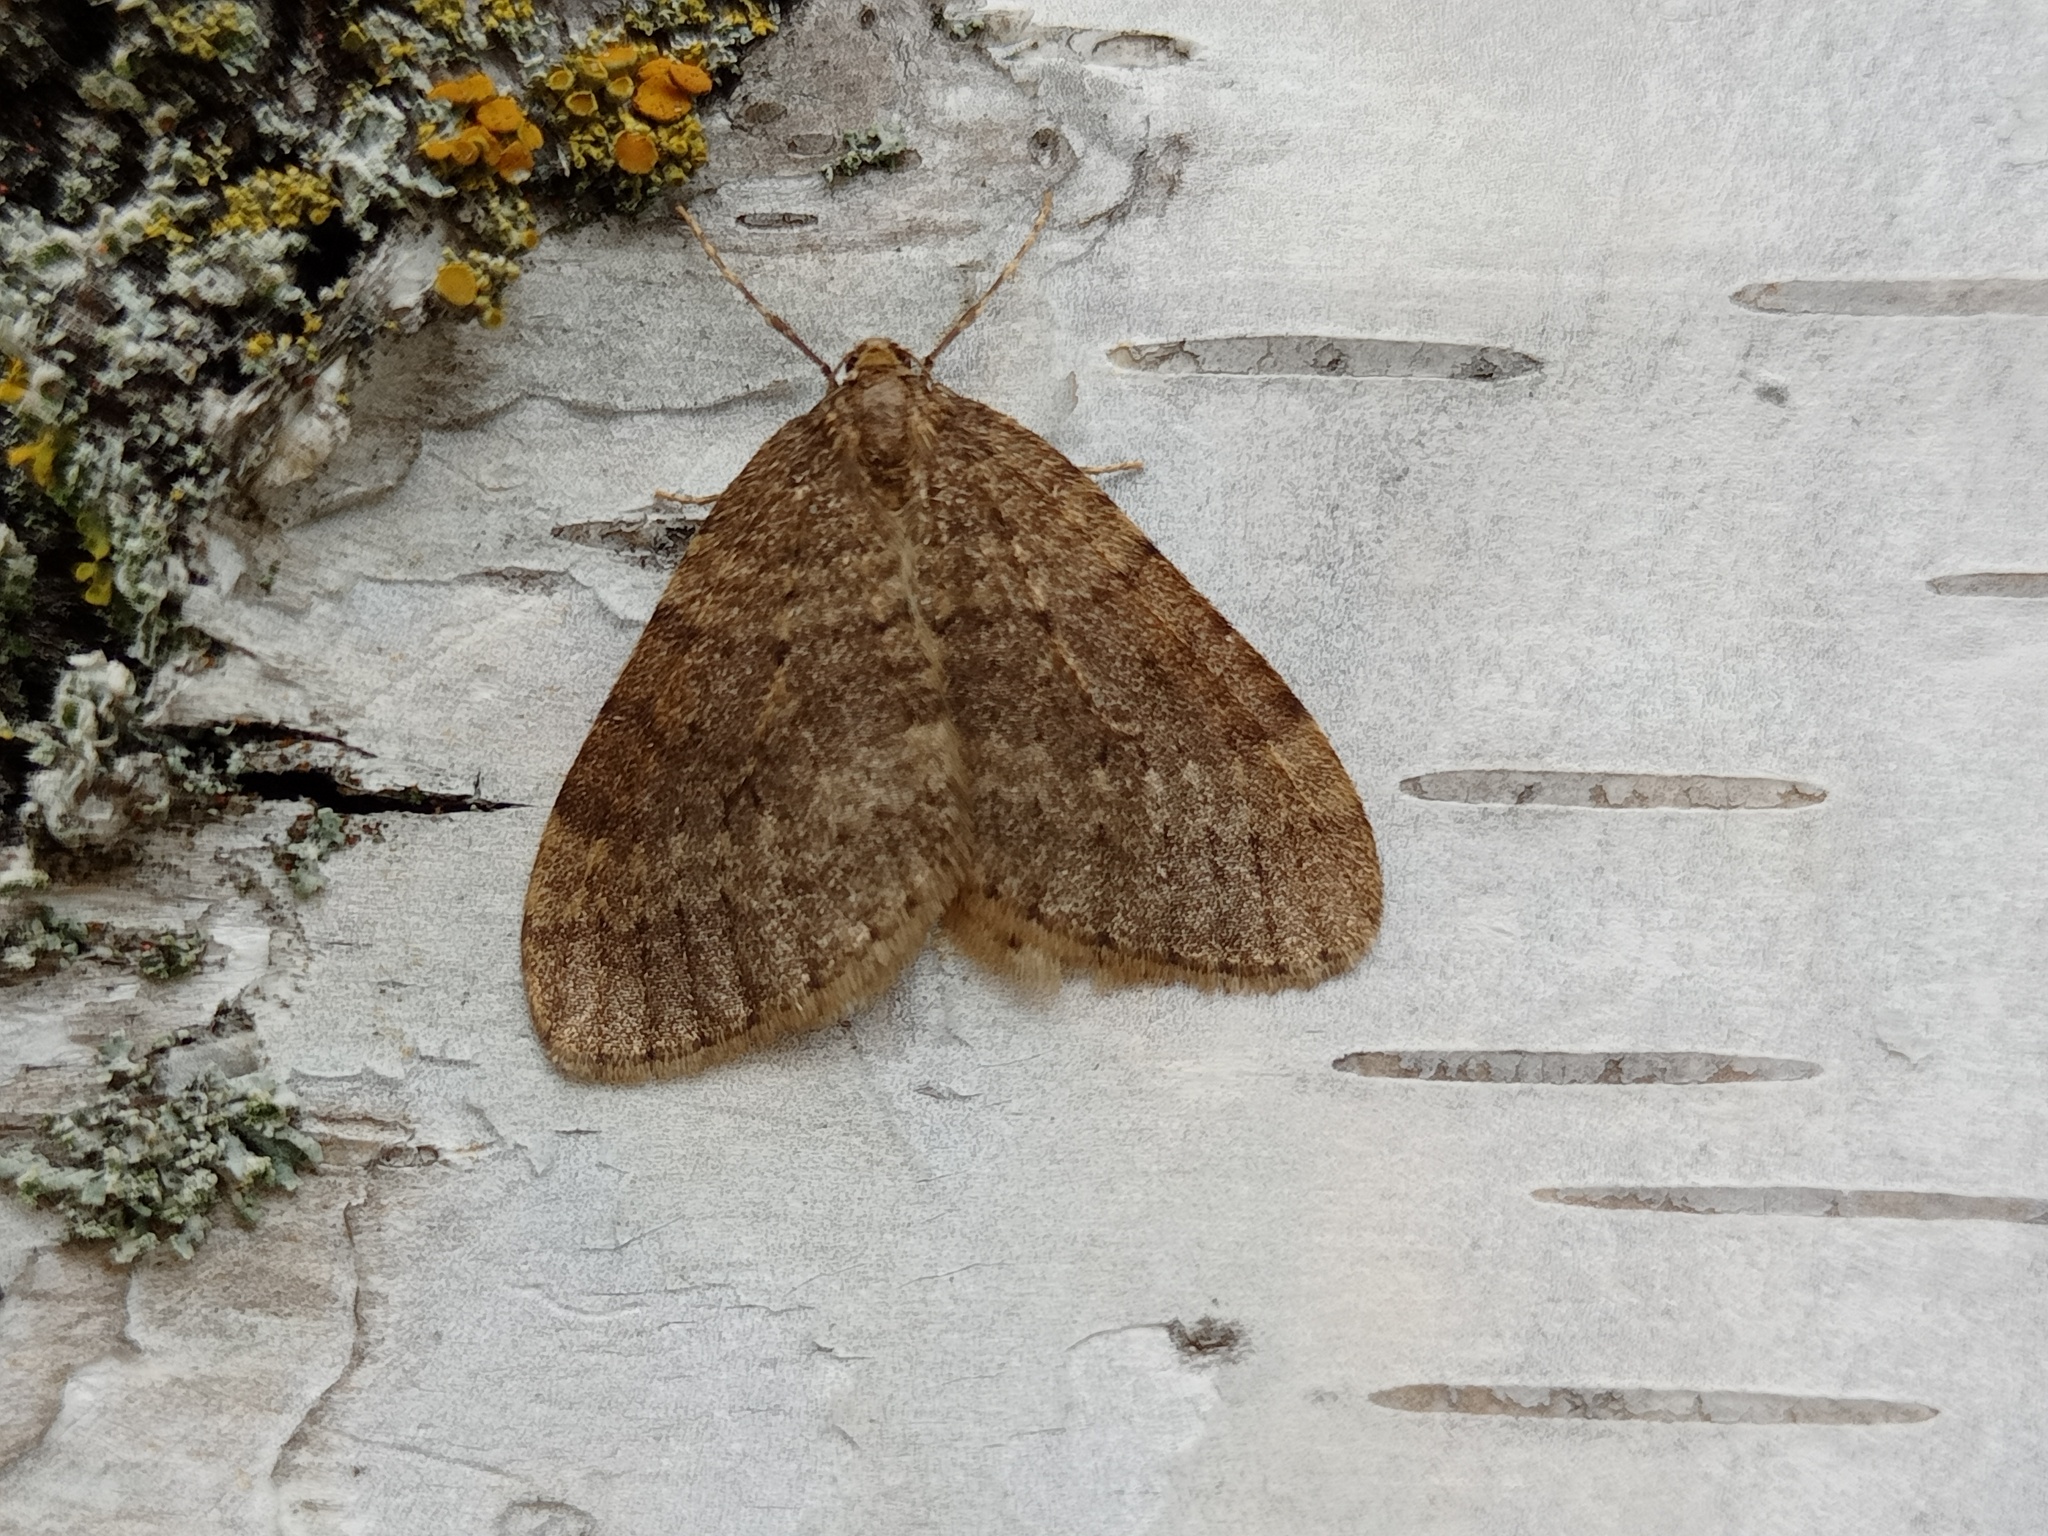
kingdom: Animalia
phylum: Arthropoda
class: Insecta
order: Lepidoptera
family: Geometridae
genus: Operophtera
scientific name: Operophtera brumata
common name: Winter moth
